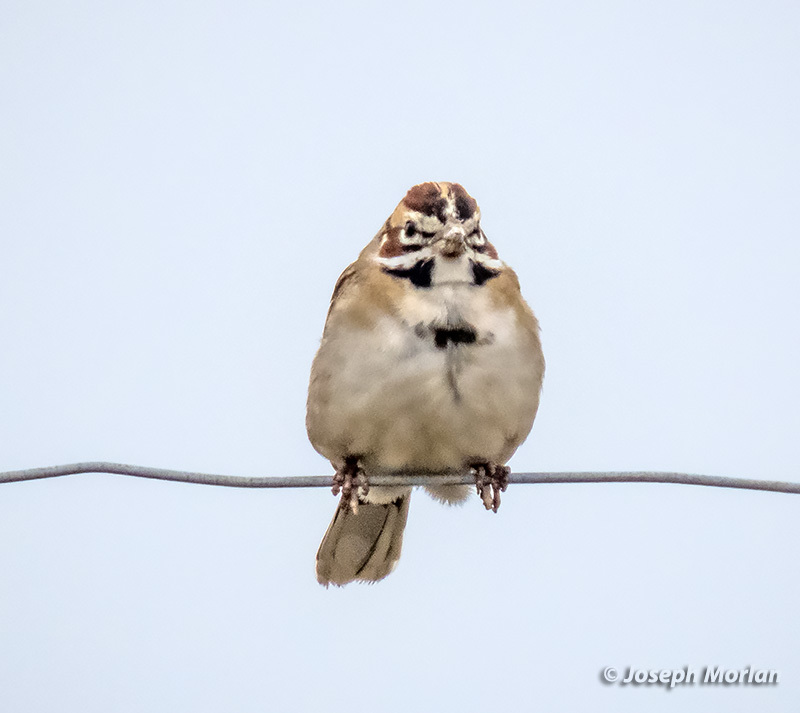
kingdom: Animalia
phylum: Chordata
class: Aves
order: Passeriformes
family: Passerellidae
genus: Chondestes
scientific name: Chondestes grammacus
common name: Lark sparrow
